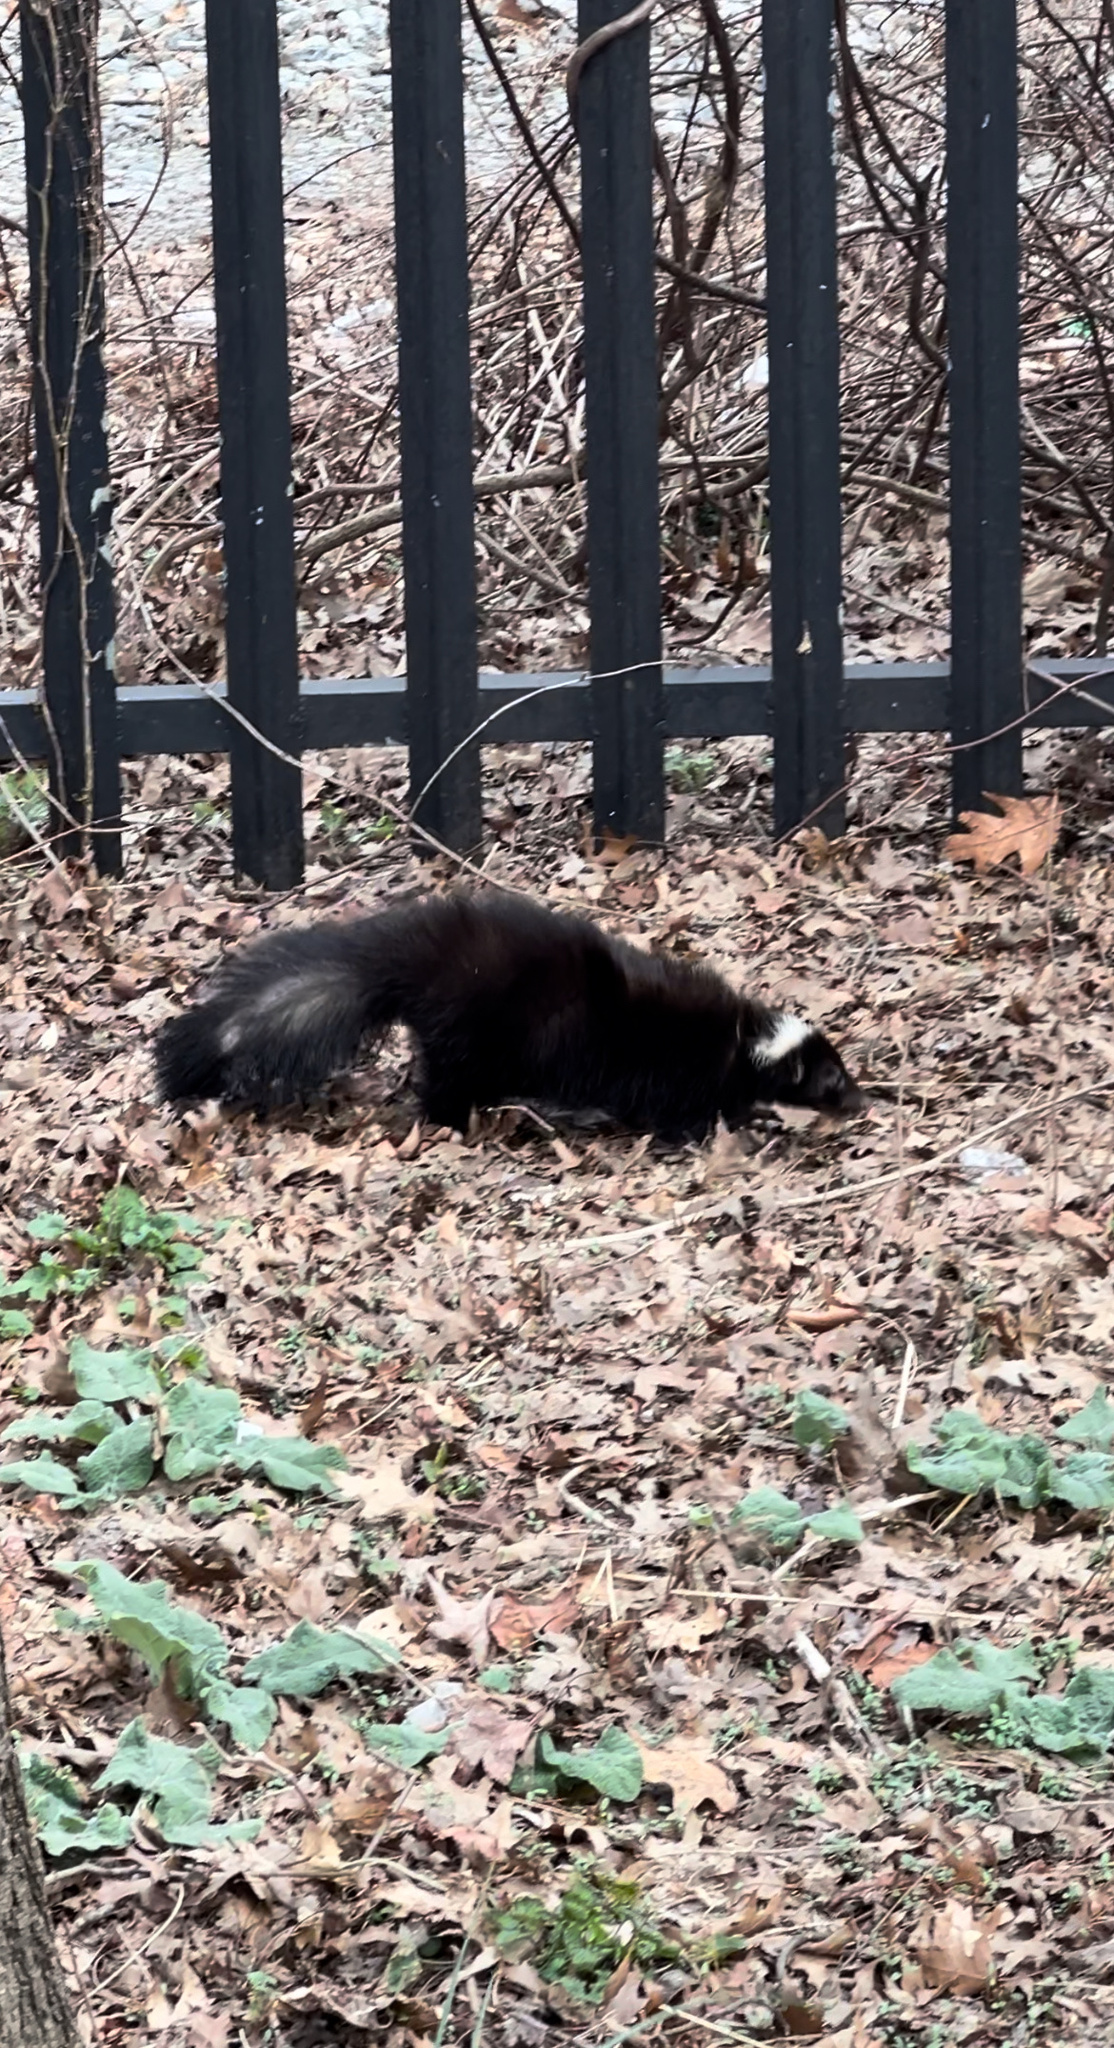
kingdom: Animalia
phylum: Chordata
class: Mammalia
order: Carnivora
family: Mephitidae
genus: Mephitis
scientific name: Mephitis mephitis
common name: Striped skunk
